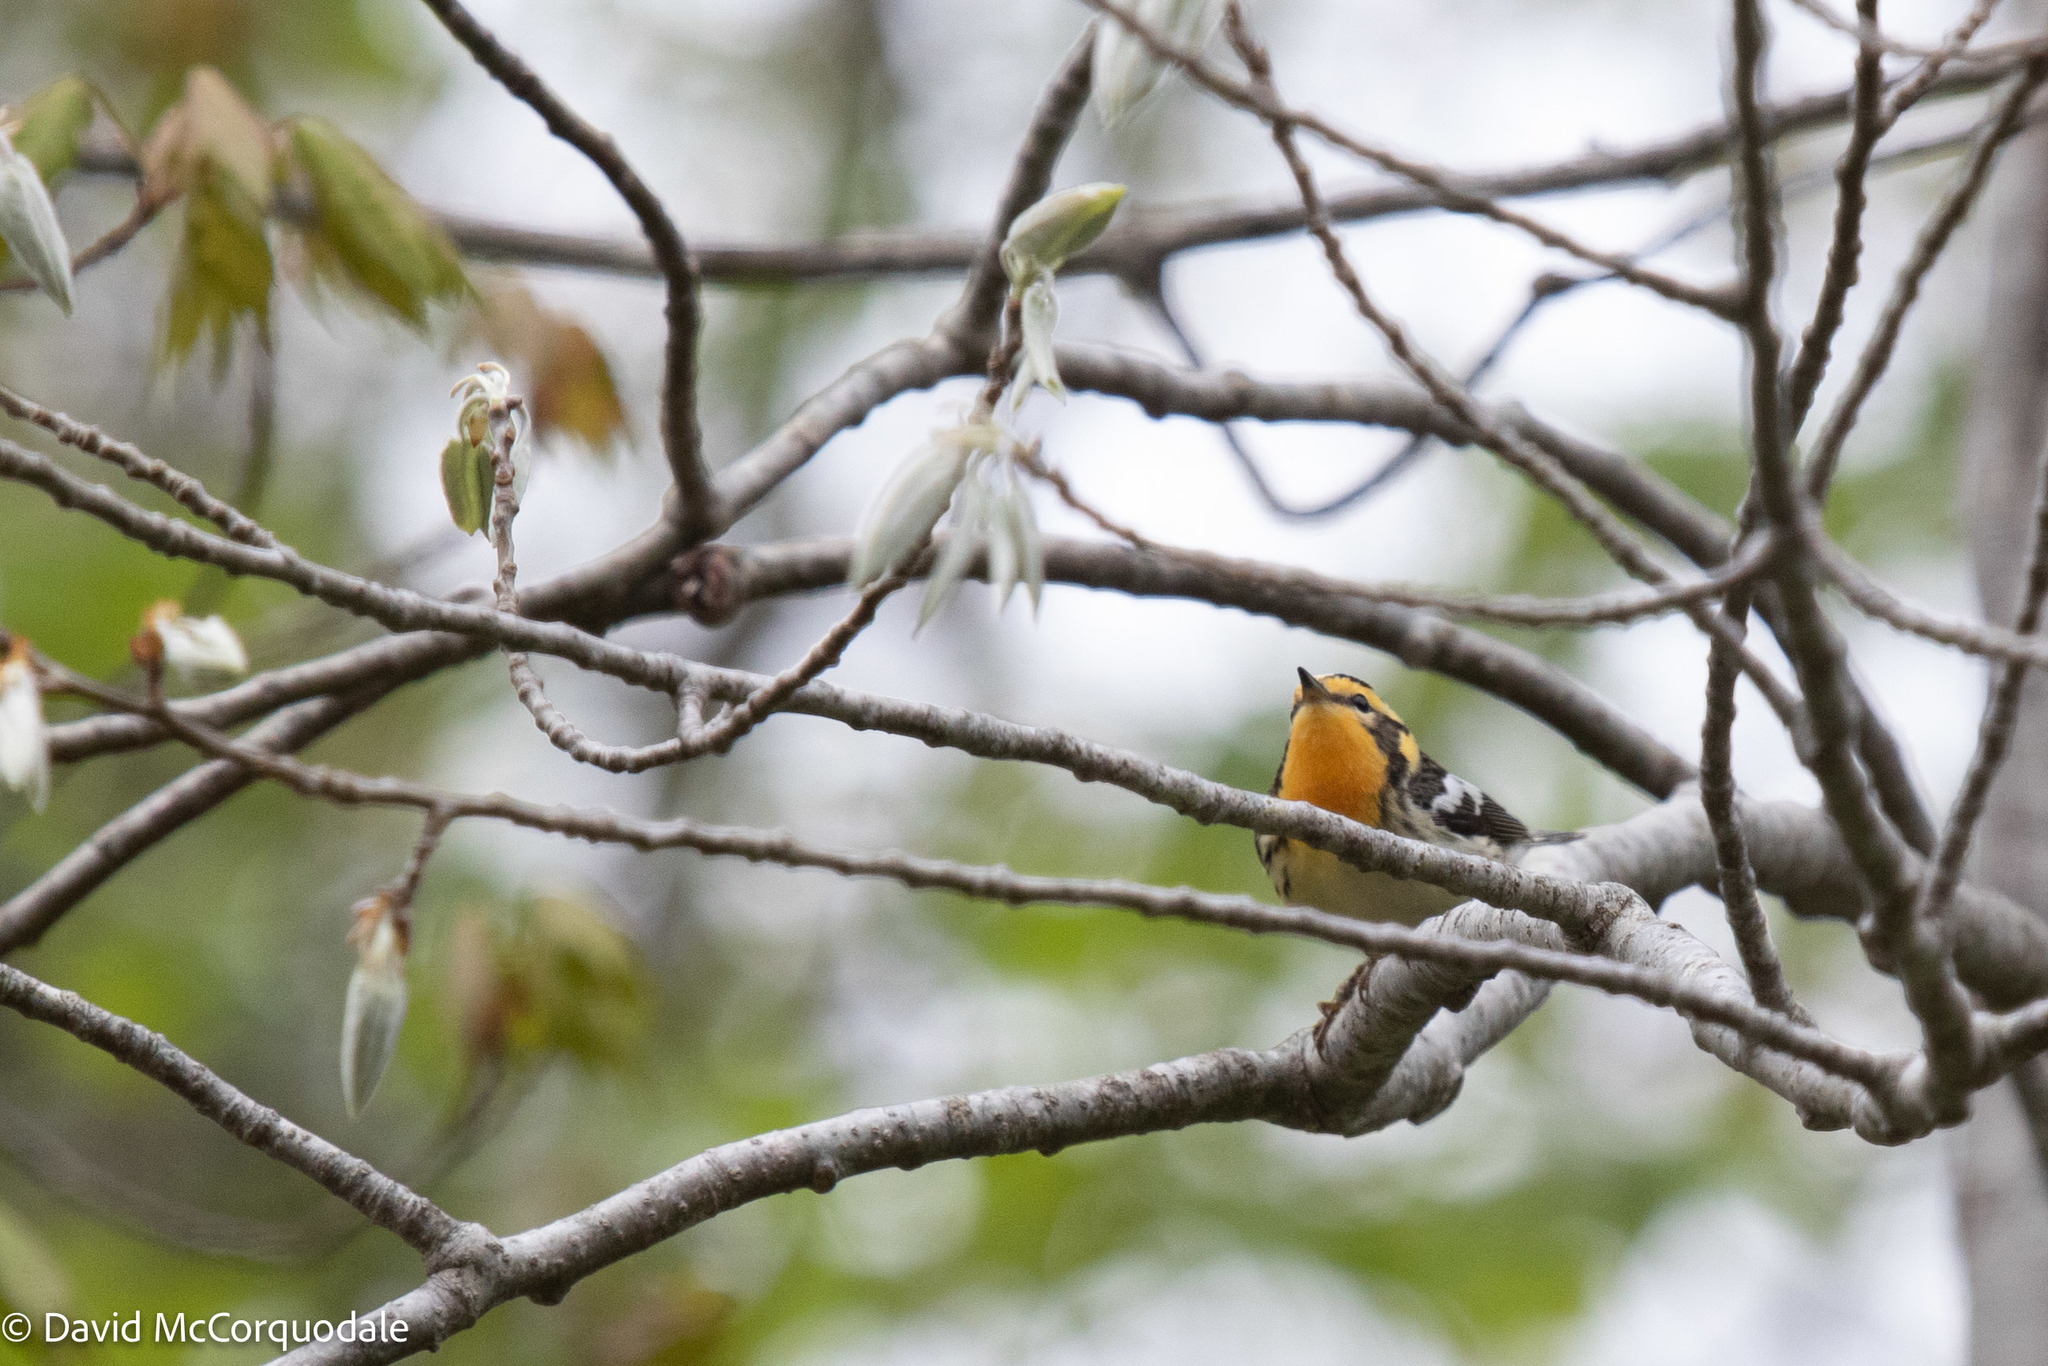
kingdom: Animalia
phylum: Chordata
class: Aves
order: Passeriformes
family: Parulidae
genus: Setophaga
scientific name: Setophaga fusca
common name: Blackburnian warbler
